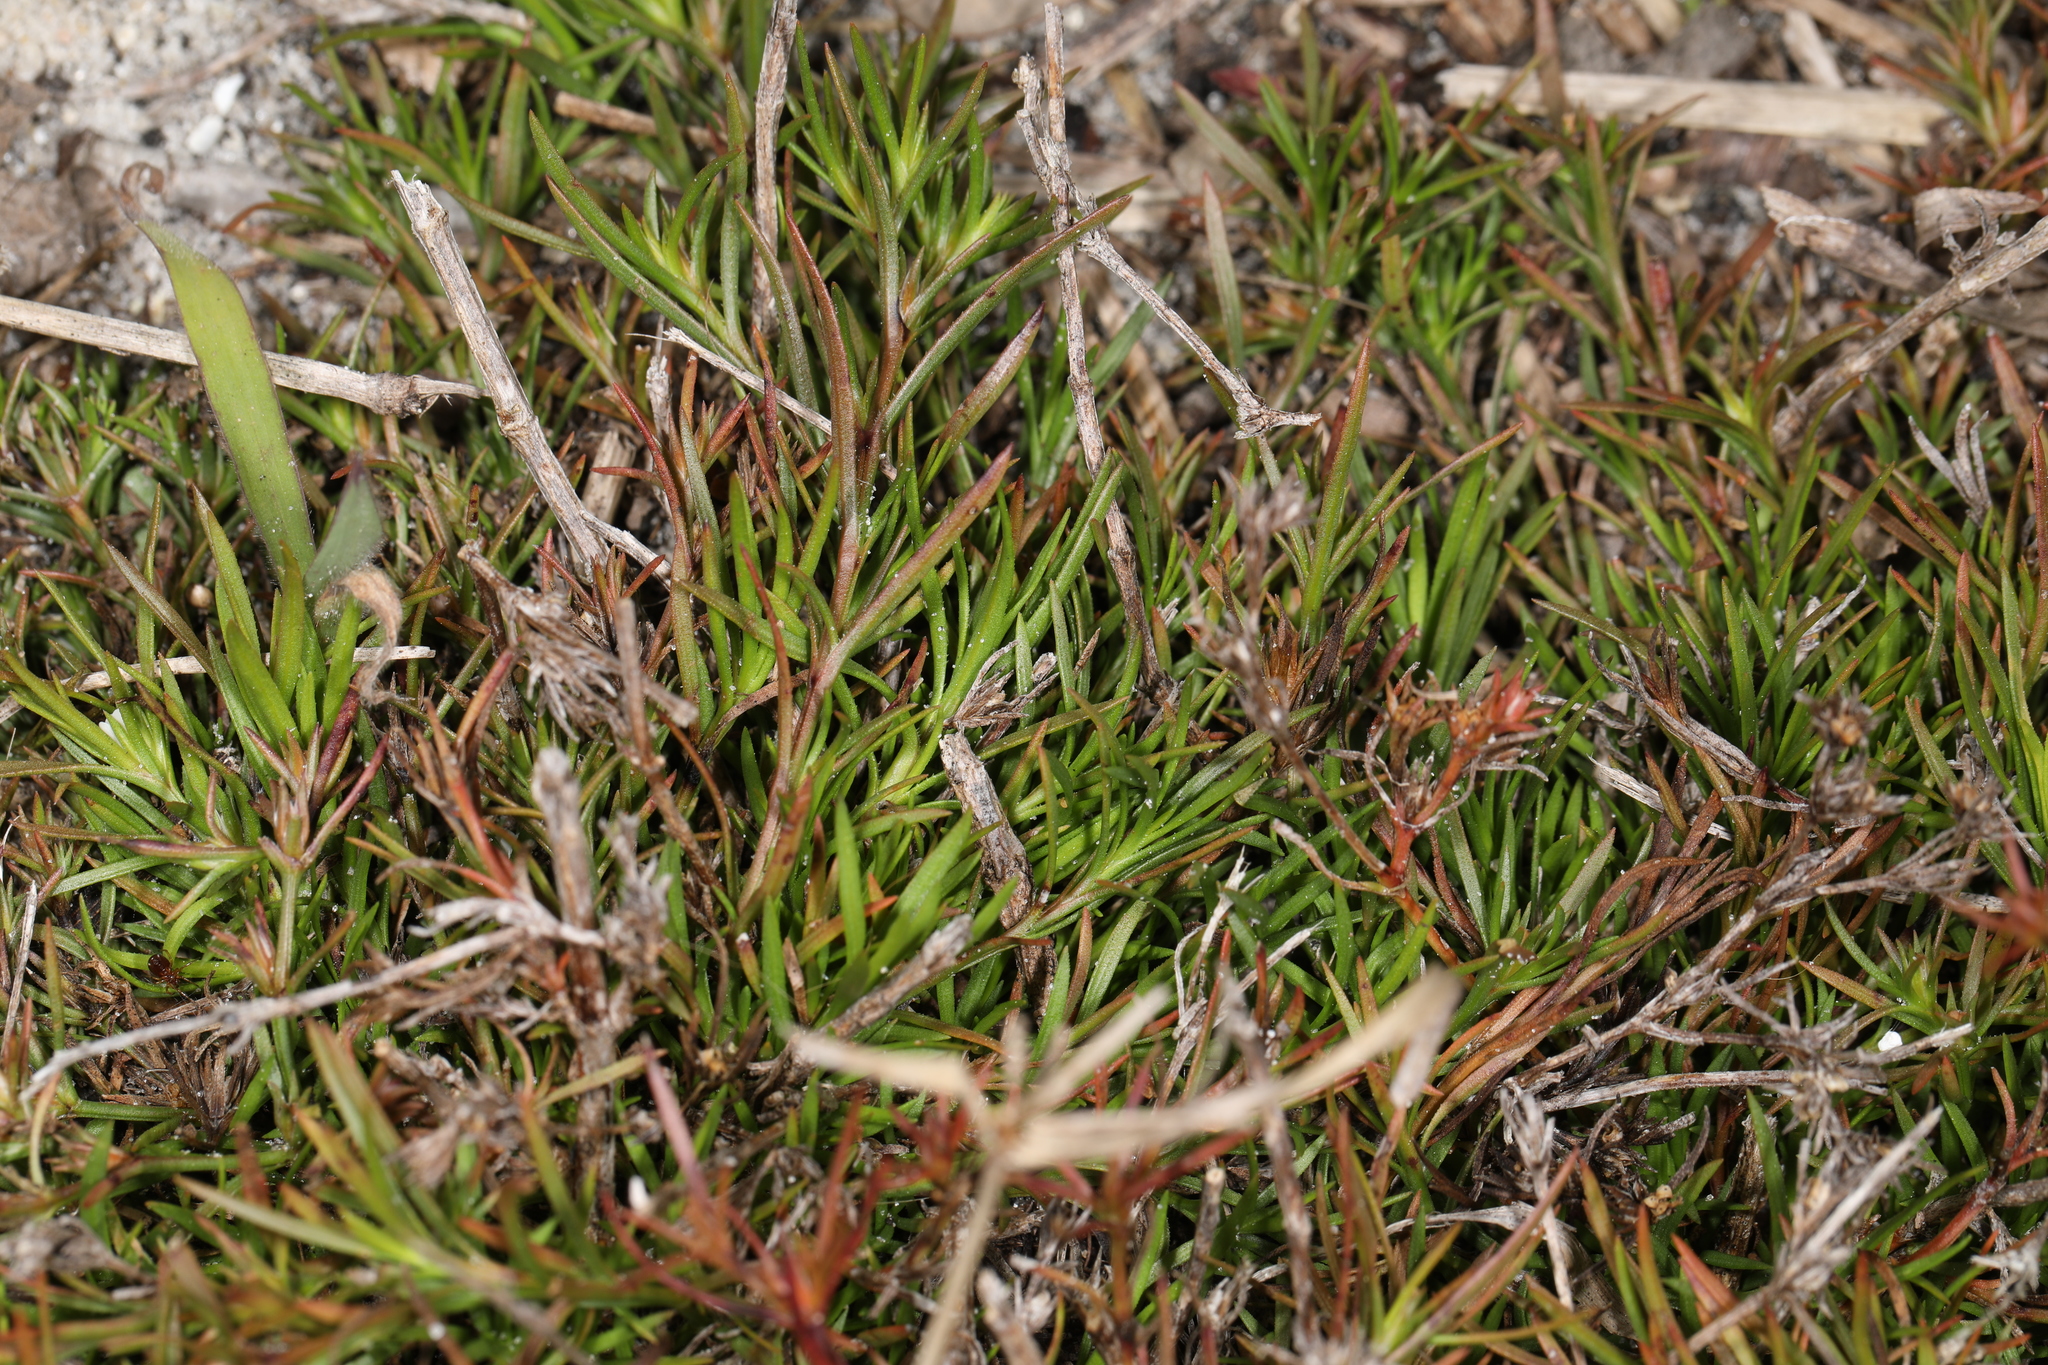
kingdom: Plantae
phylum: Tracheophyta
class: Magnoliopsida
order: Lamiales
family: Tetrachondraceae
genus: Polypremum
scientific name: Polypremum procumbens
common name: Juniper-leaf
